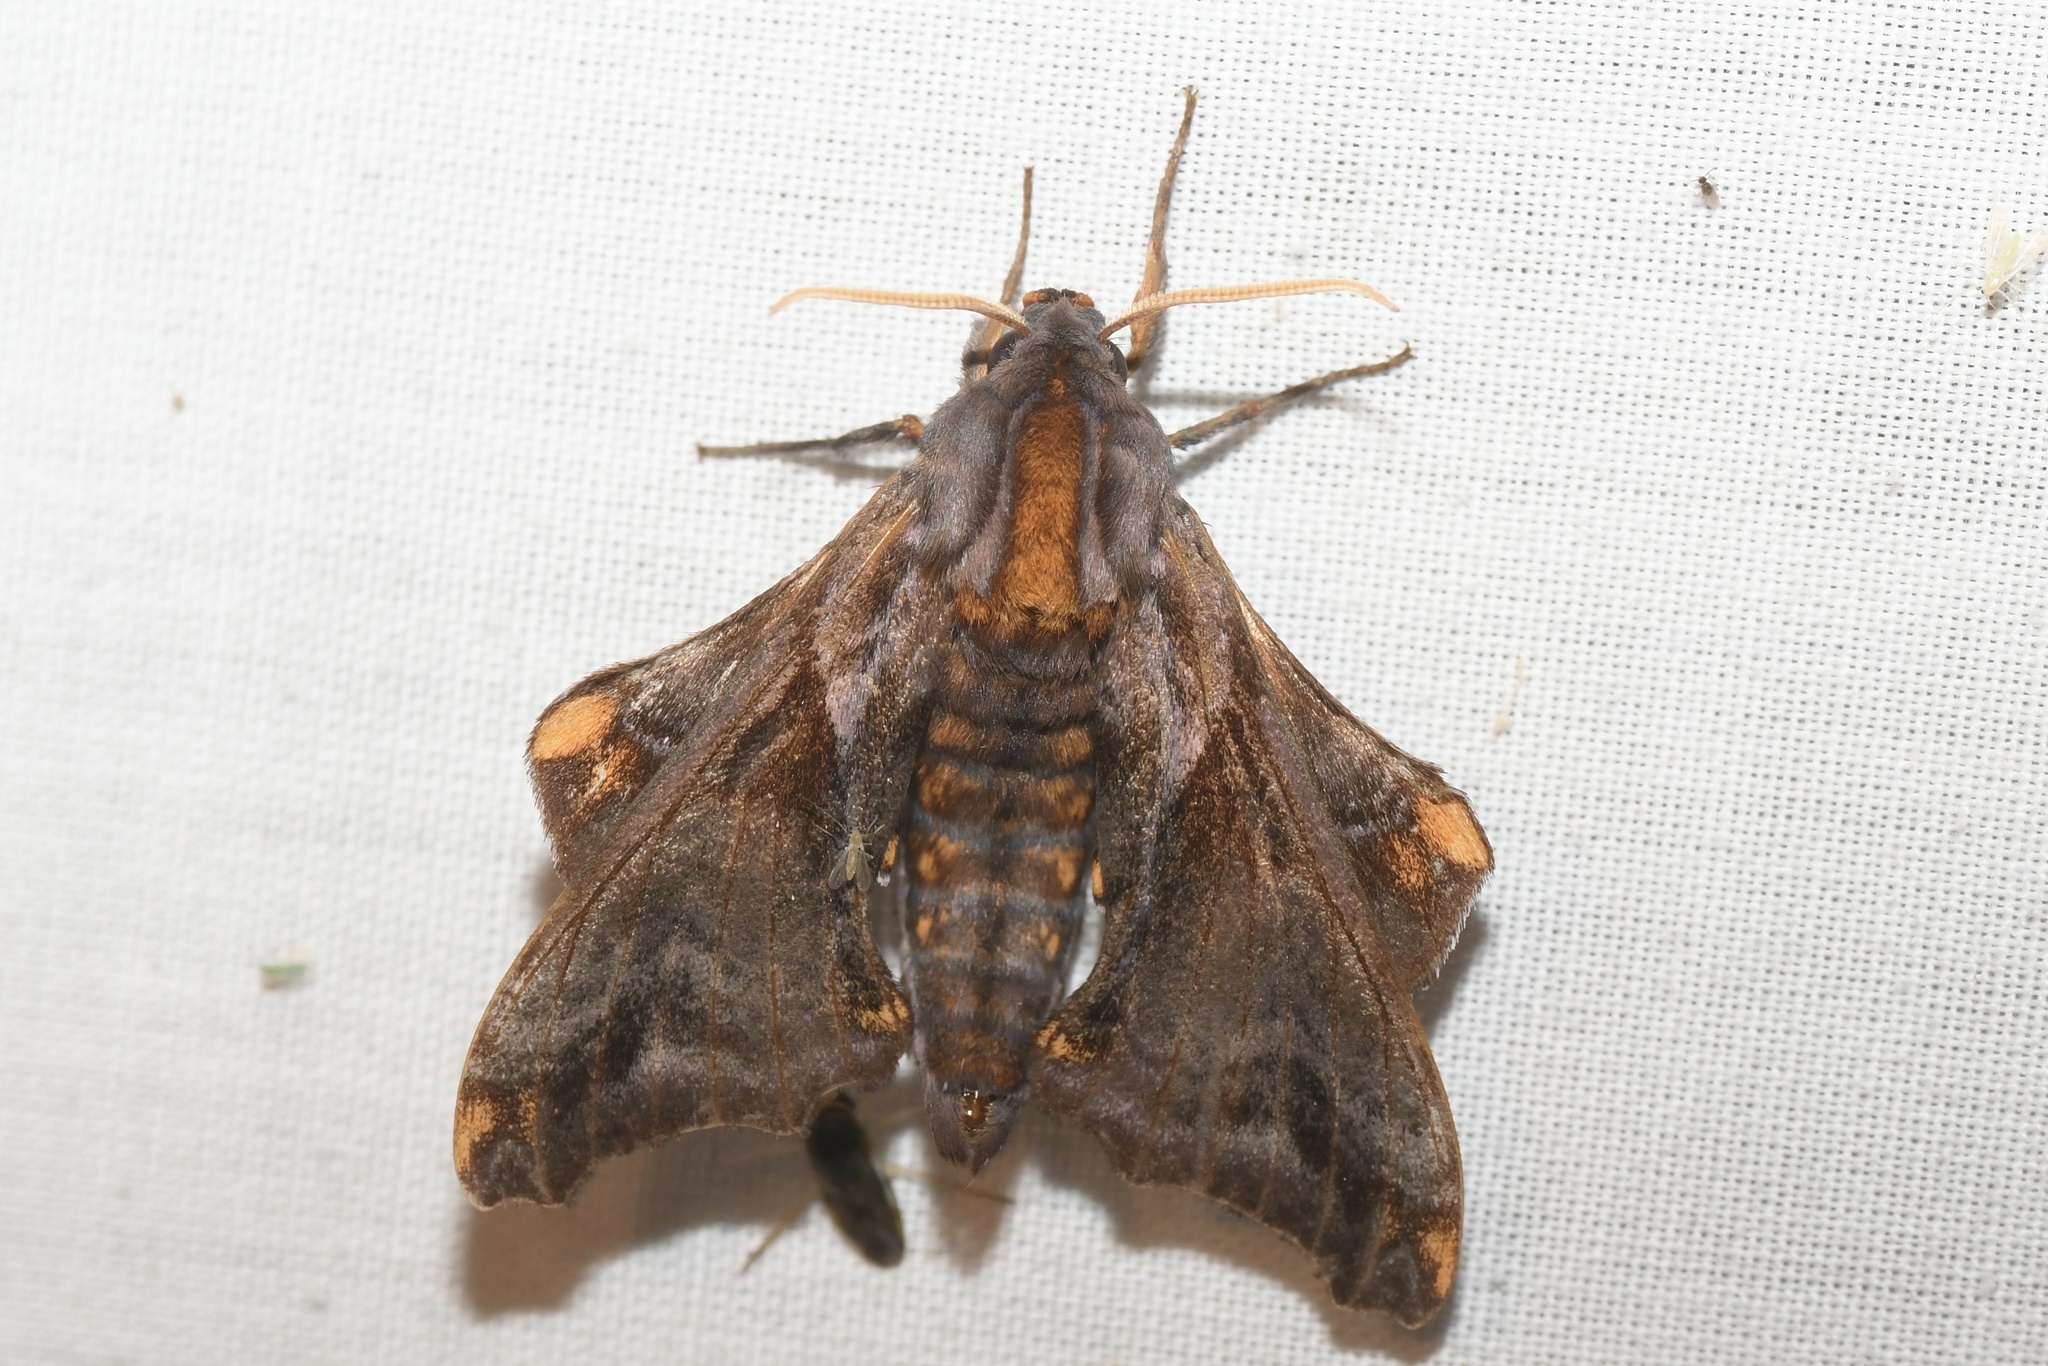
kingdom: Animalia
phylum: Arthropoda
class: Insecta
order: Lepidoptera
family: Sphingidae
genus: Paonias
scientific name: Paonias myops
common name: Small-eyed sphinx
